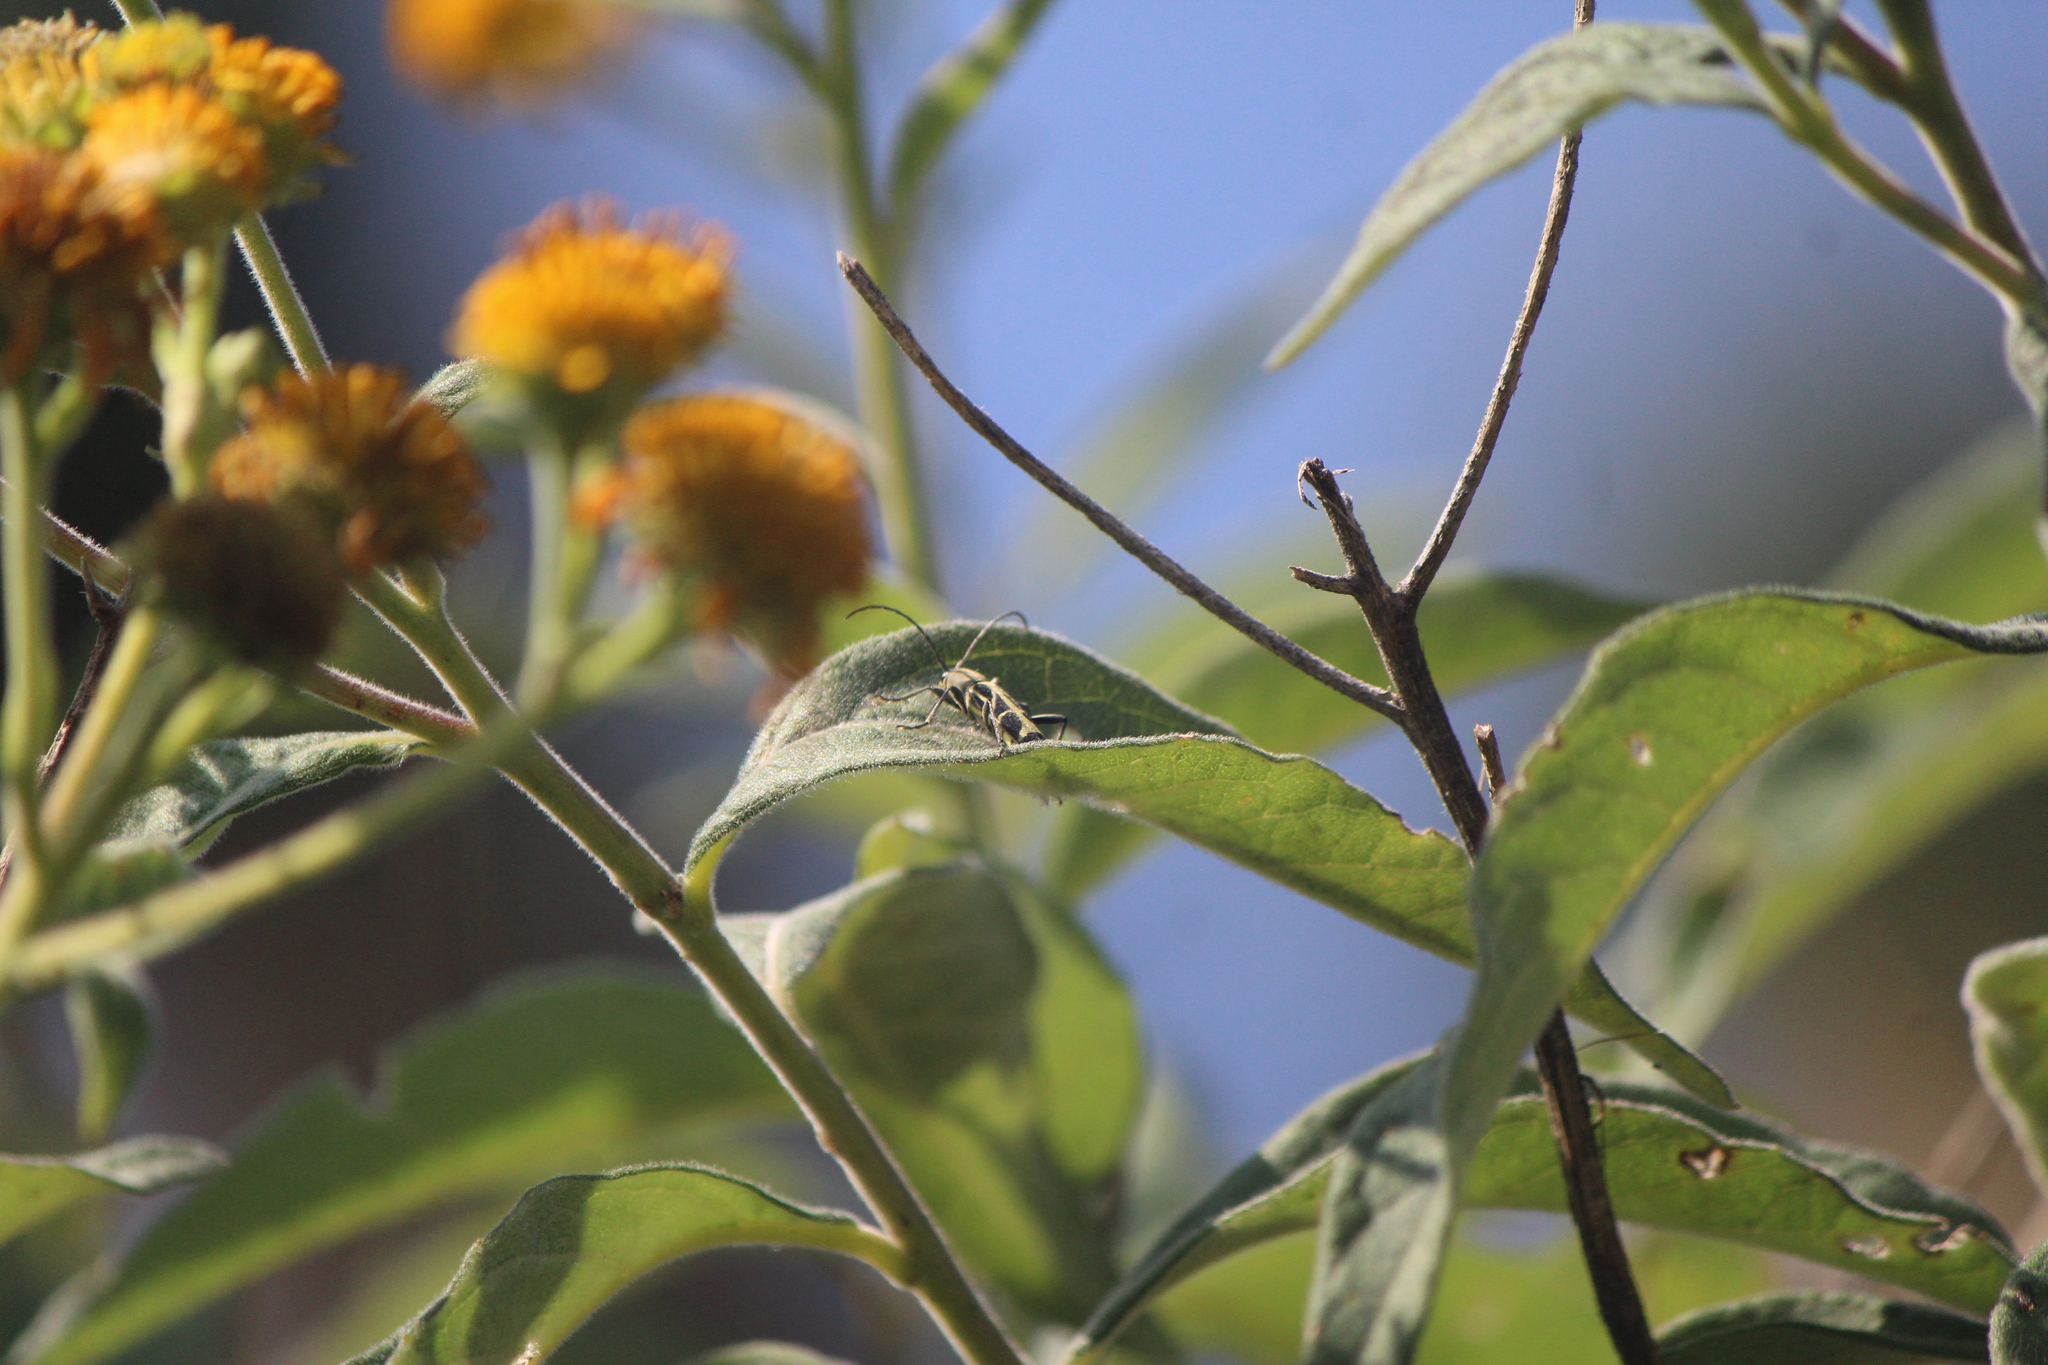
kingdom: Animalia
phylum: Arthropoda
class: Insecta
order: Coleoptera
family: Cerambycidae
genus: Tanyochraethes
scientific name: Tanyochraethes clathratus
